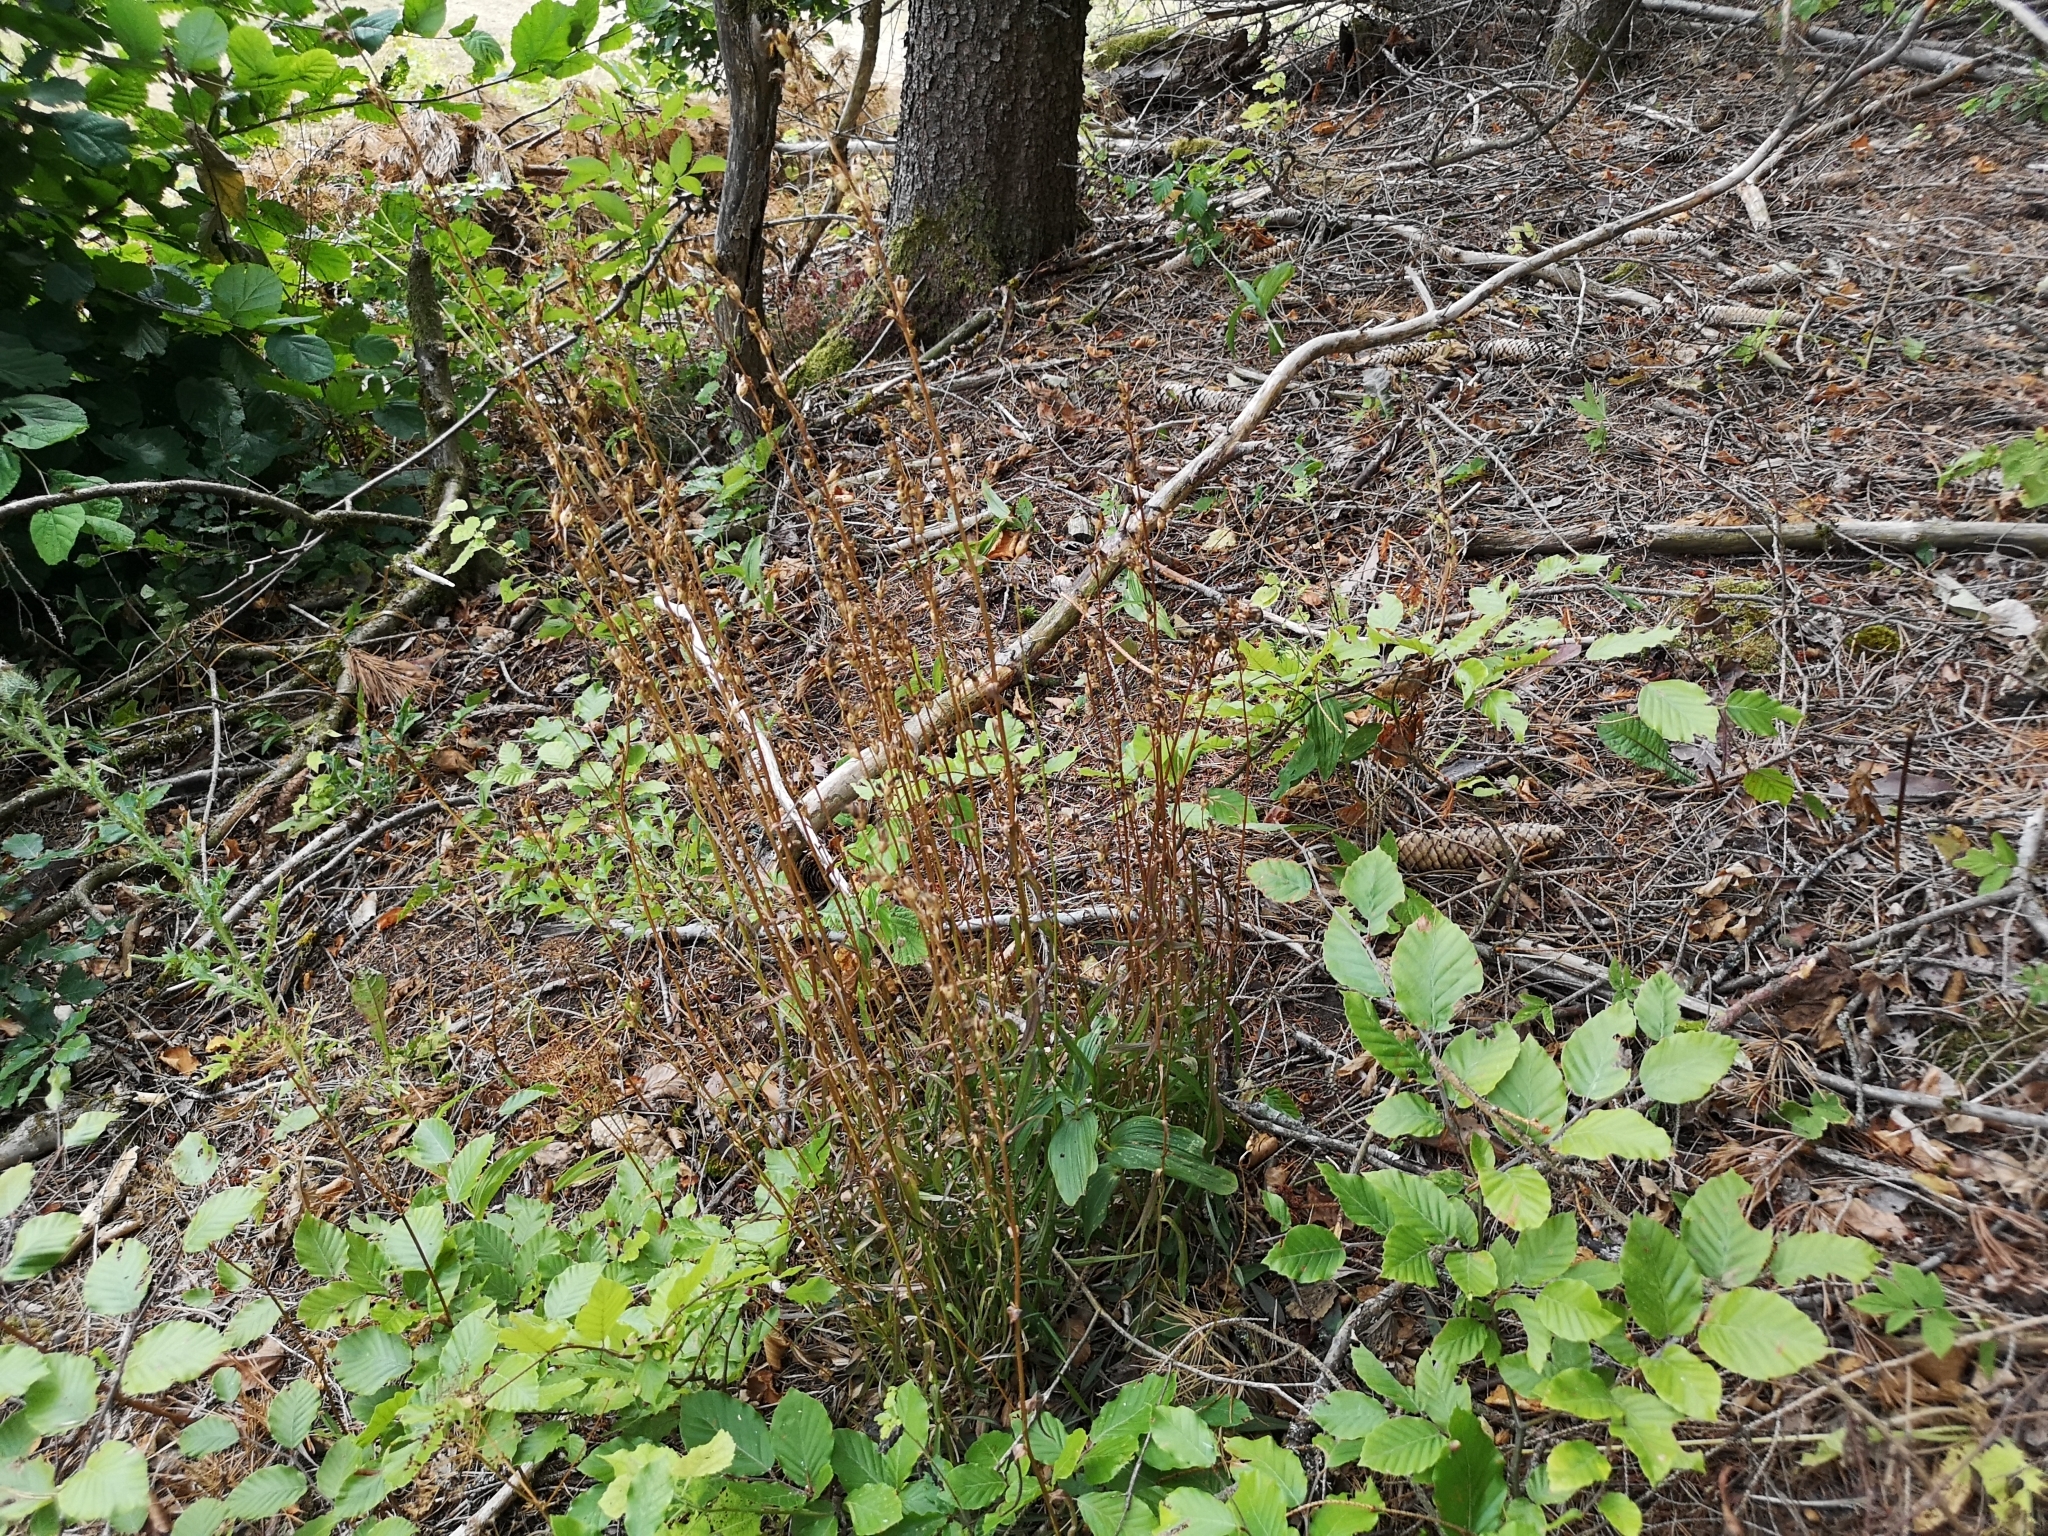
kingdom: Plantae
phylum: Tracheophyta
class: Magnoliopsida
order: Asterales
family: Campanulaceae
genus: Campanula
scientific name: Campanula persicifolia
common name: Peach-leaved bellflower
